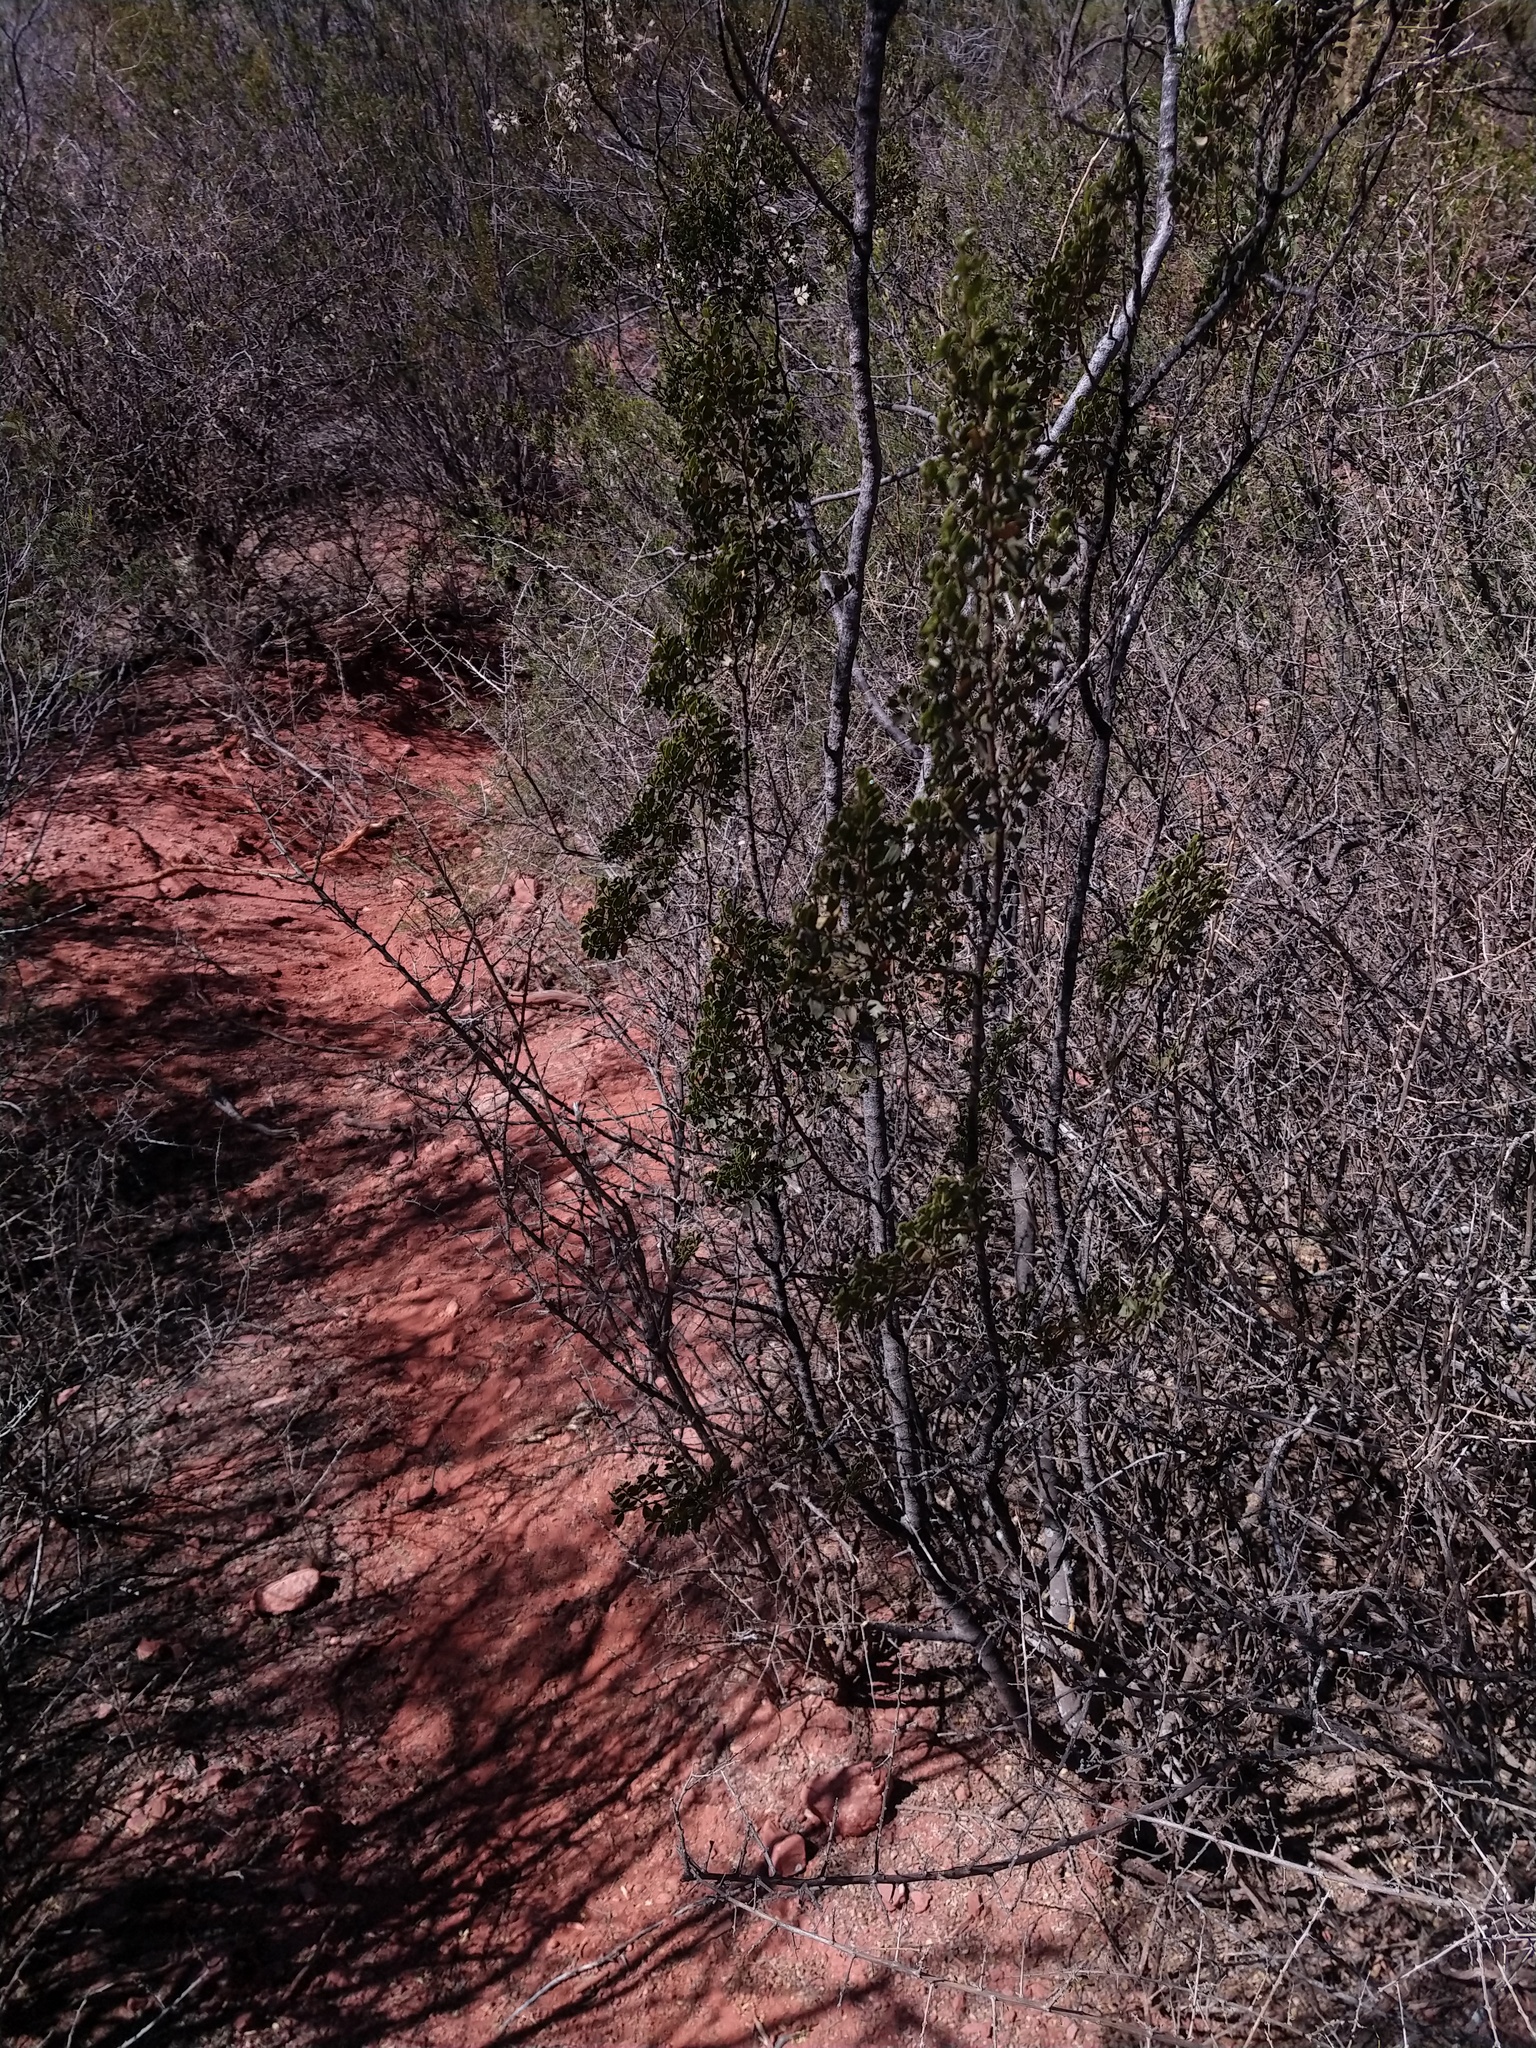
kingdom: Plantae
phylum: Tracheophyta
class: Magnoliopsida
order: Zygophyllales
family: Zygophyllaceae
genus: Larrea
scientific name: Larrea cuneifolia
